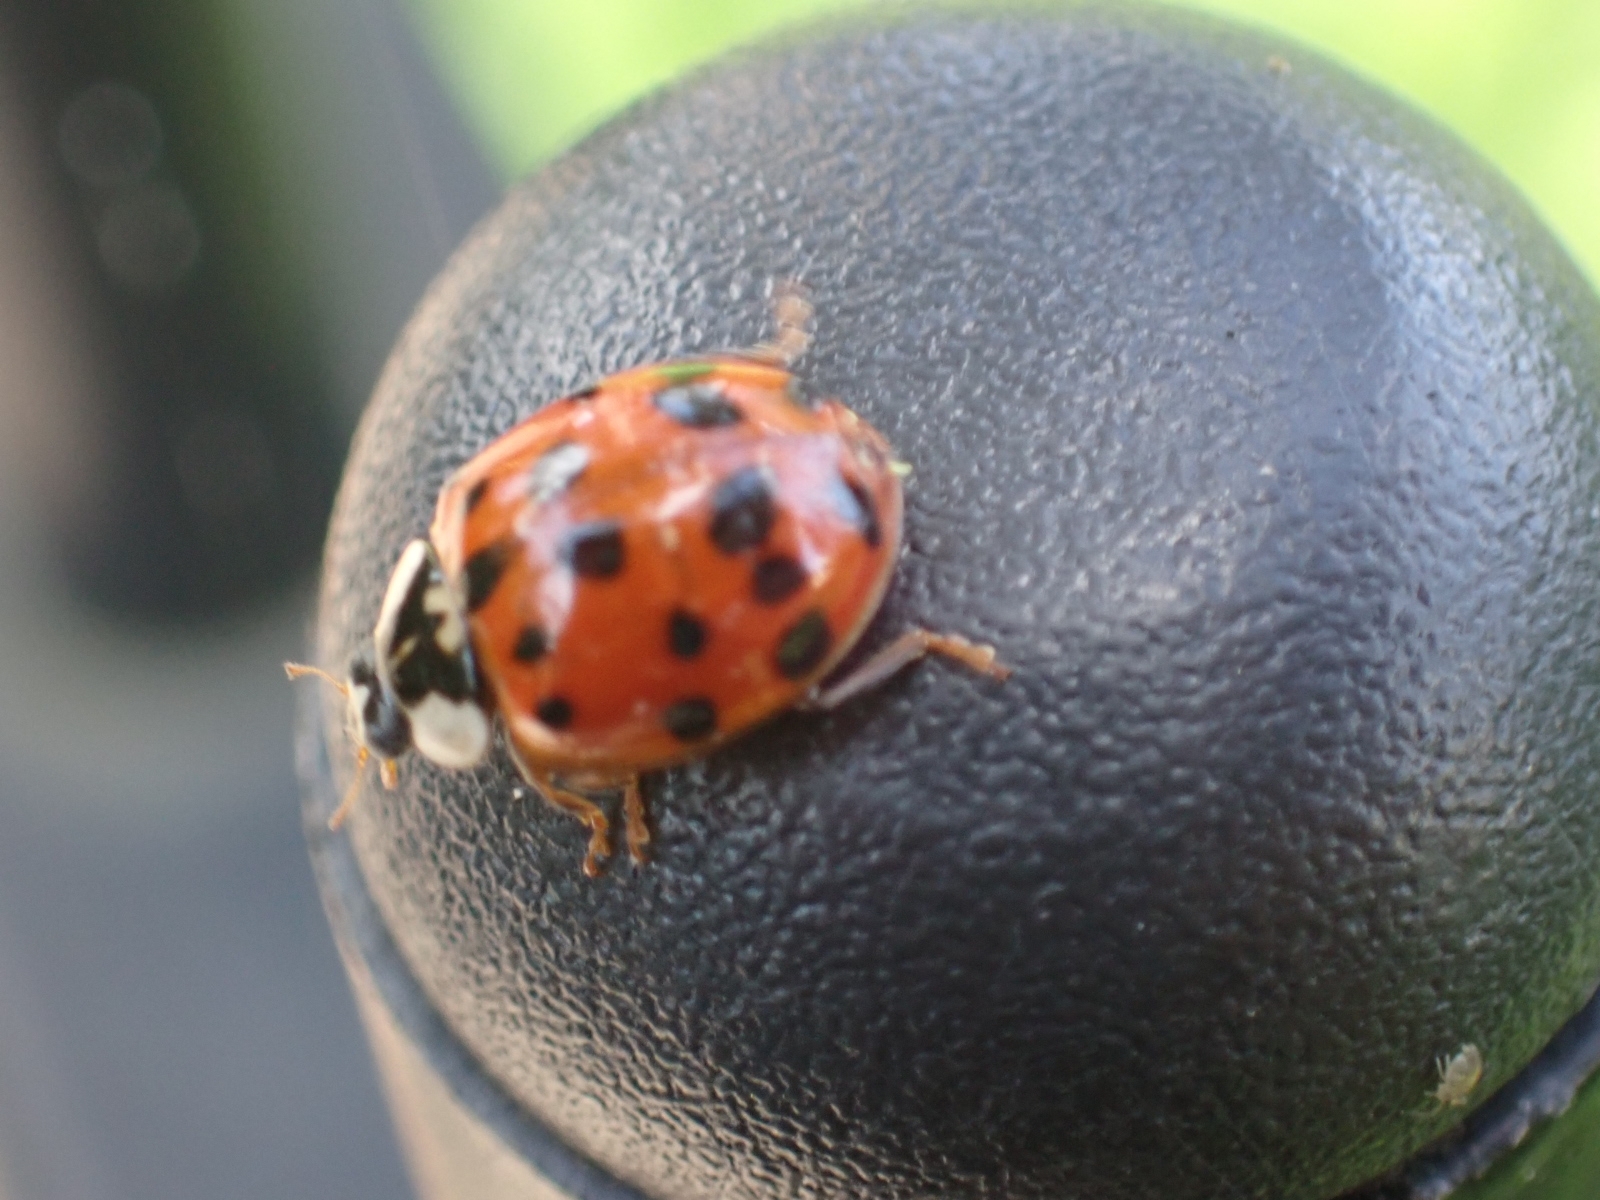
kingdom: Animalia
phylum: Arthropoda
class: Insecta
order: Coleoptera
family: Coccinellidae
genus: Harmonia
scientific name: Harmonia axyridis
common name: Harlequin ladybird
